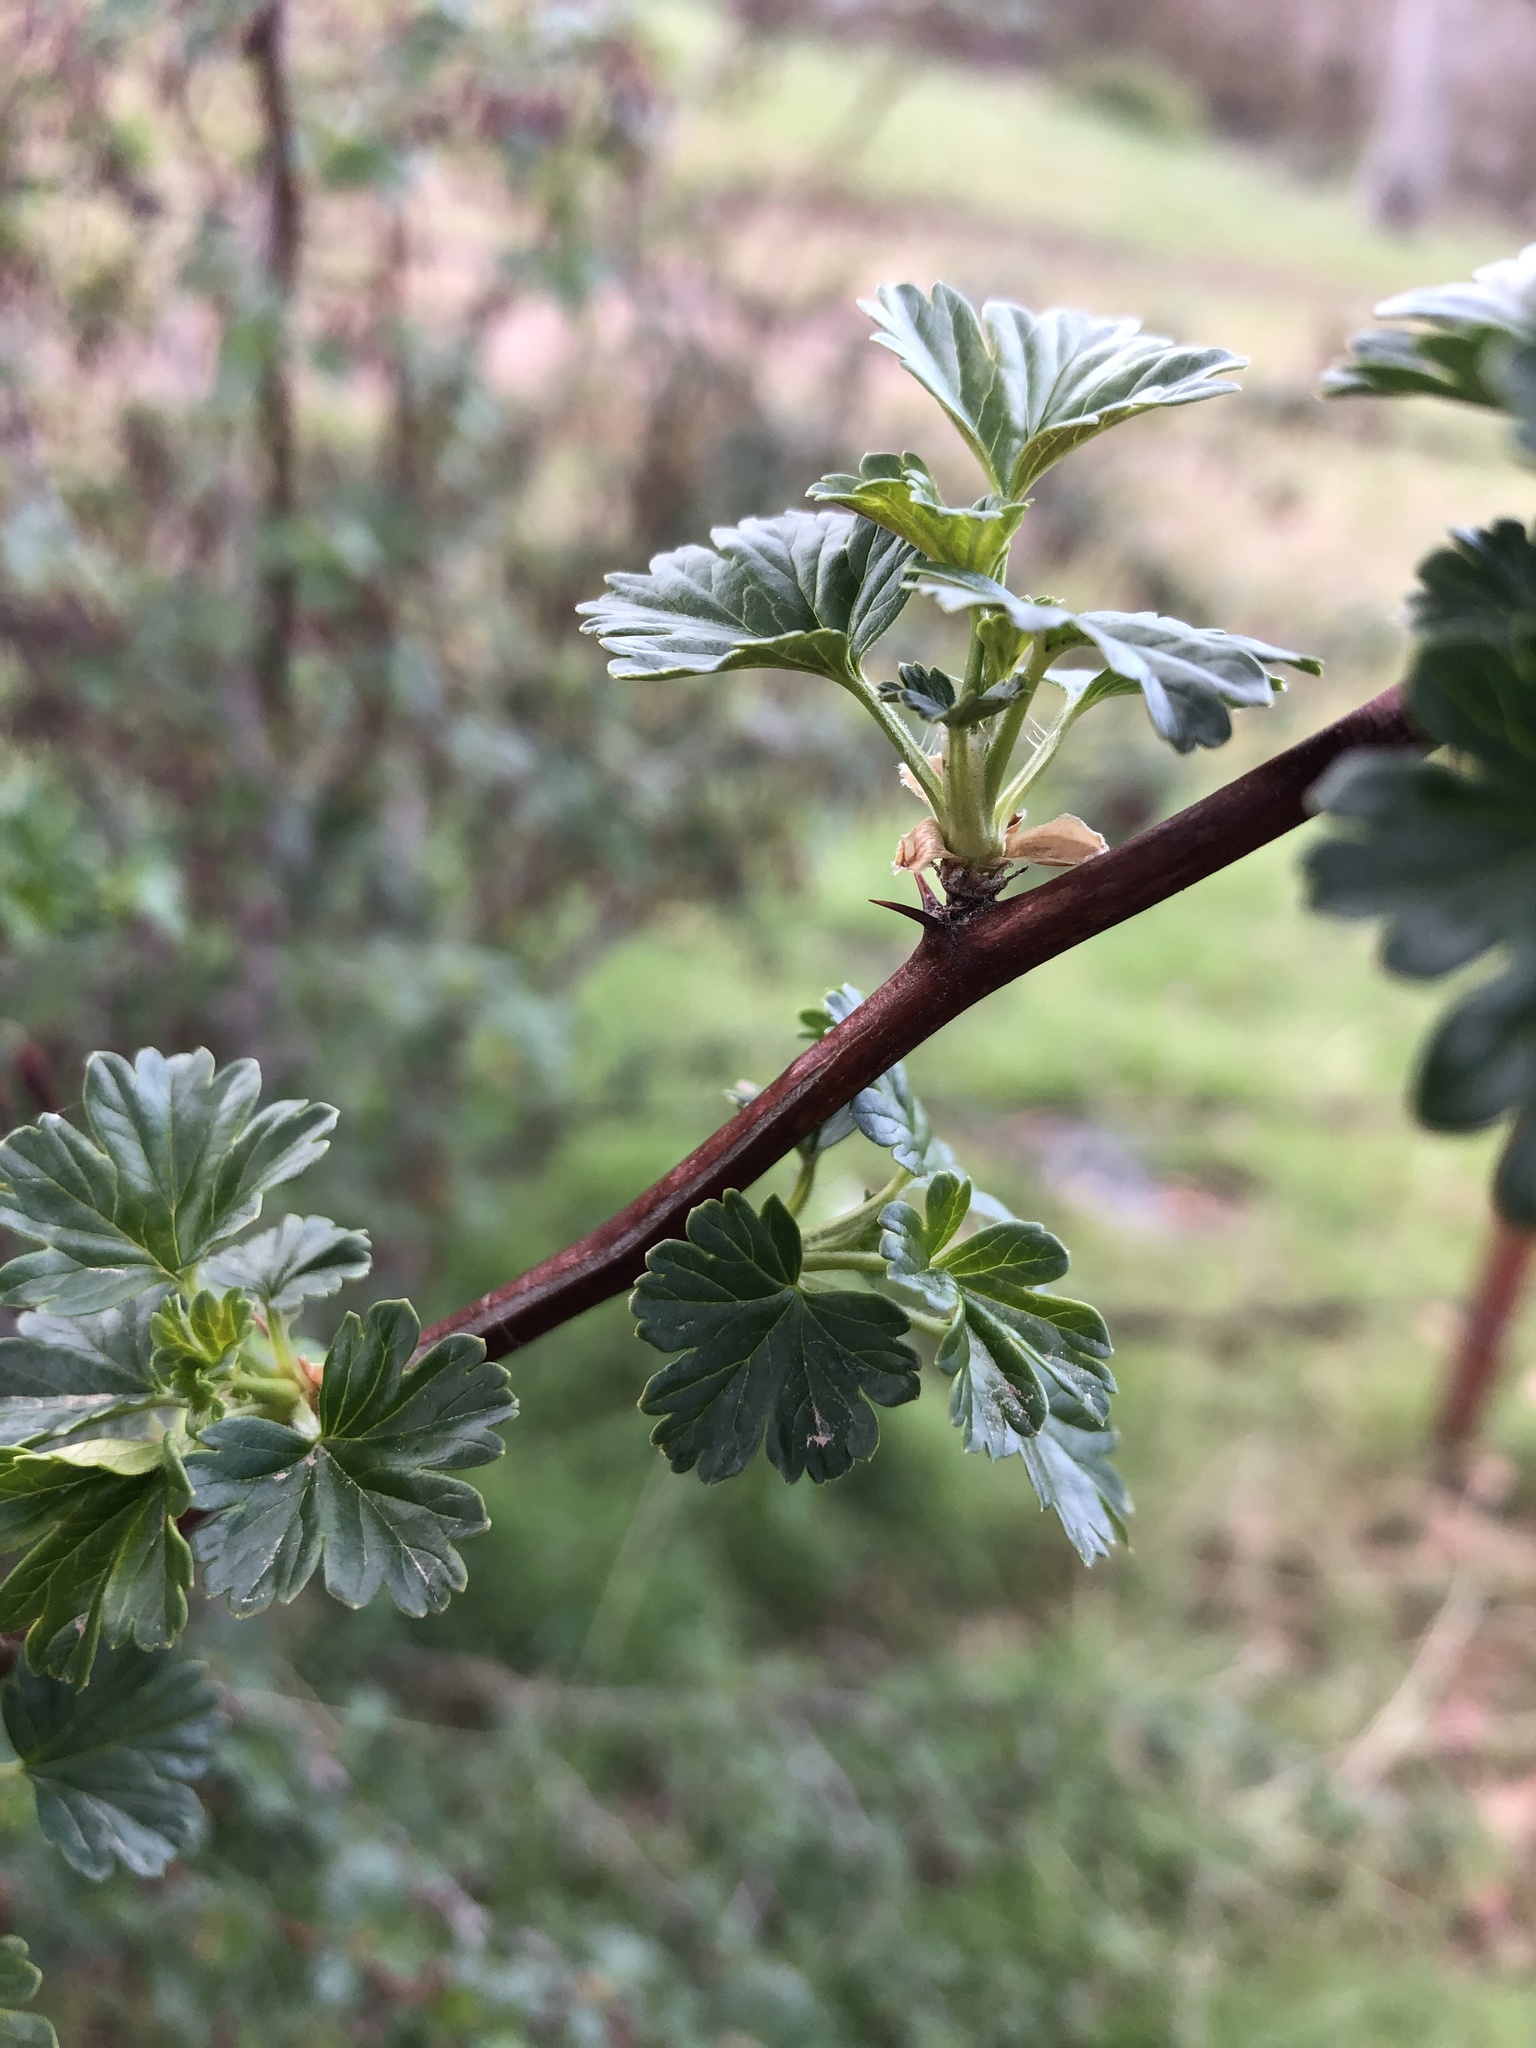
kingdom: Plantae
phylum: Tracheophyta
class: Magnoliopsida
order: Saxifragales
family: Grossulariaceae
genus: Ribes
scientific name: Ribes roezlii
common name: Sierra gooseberry
